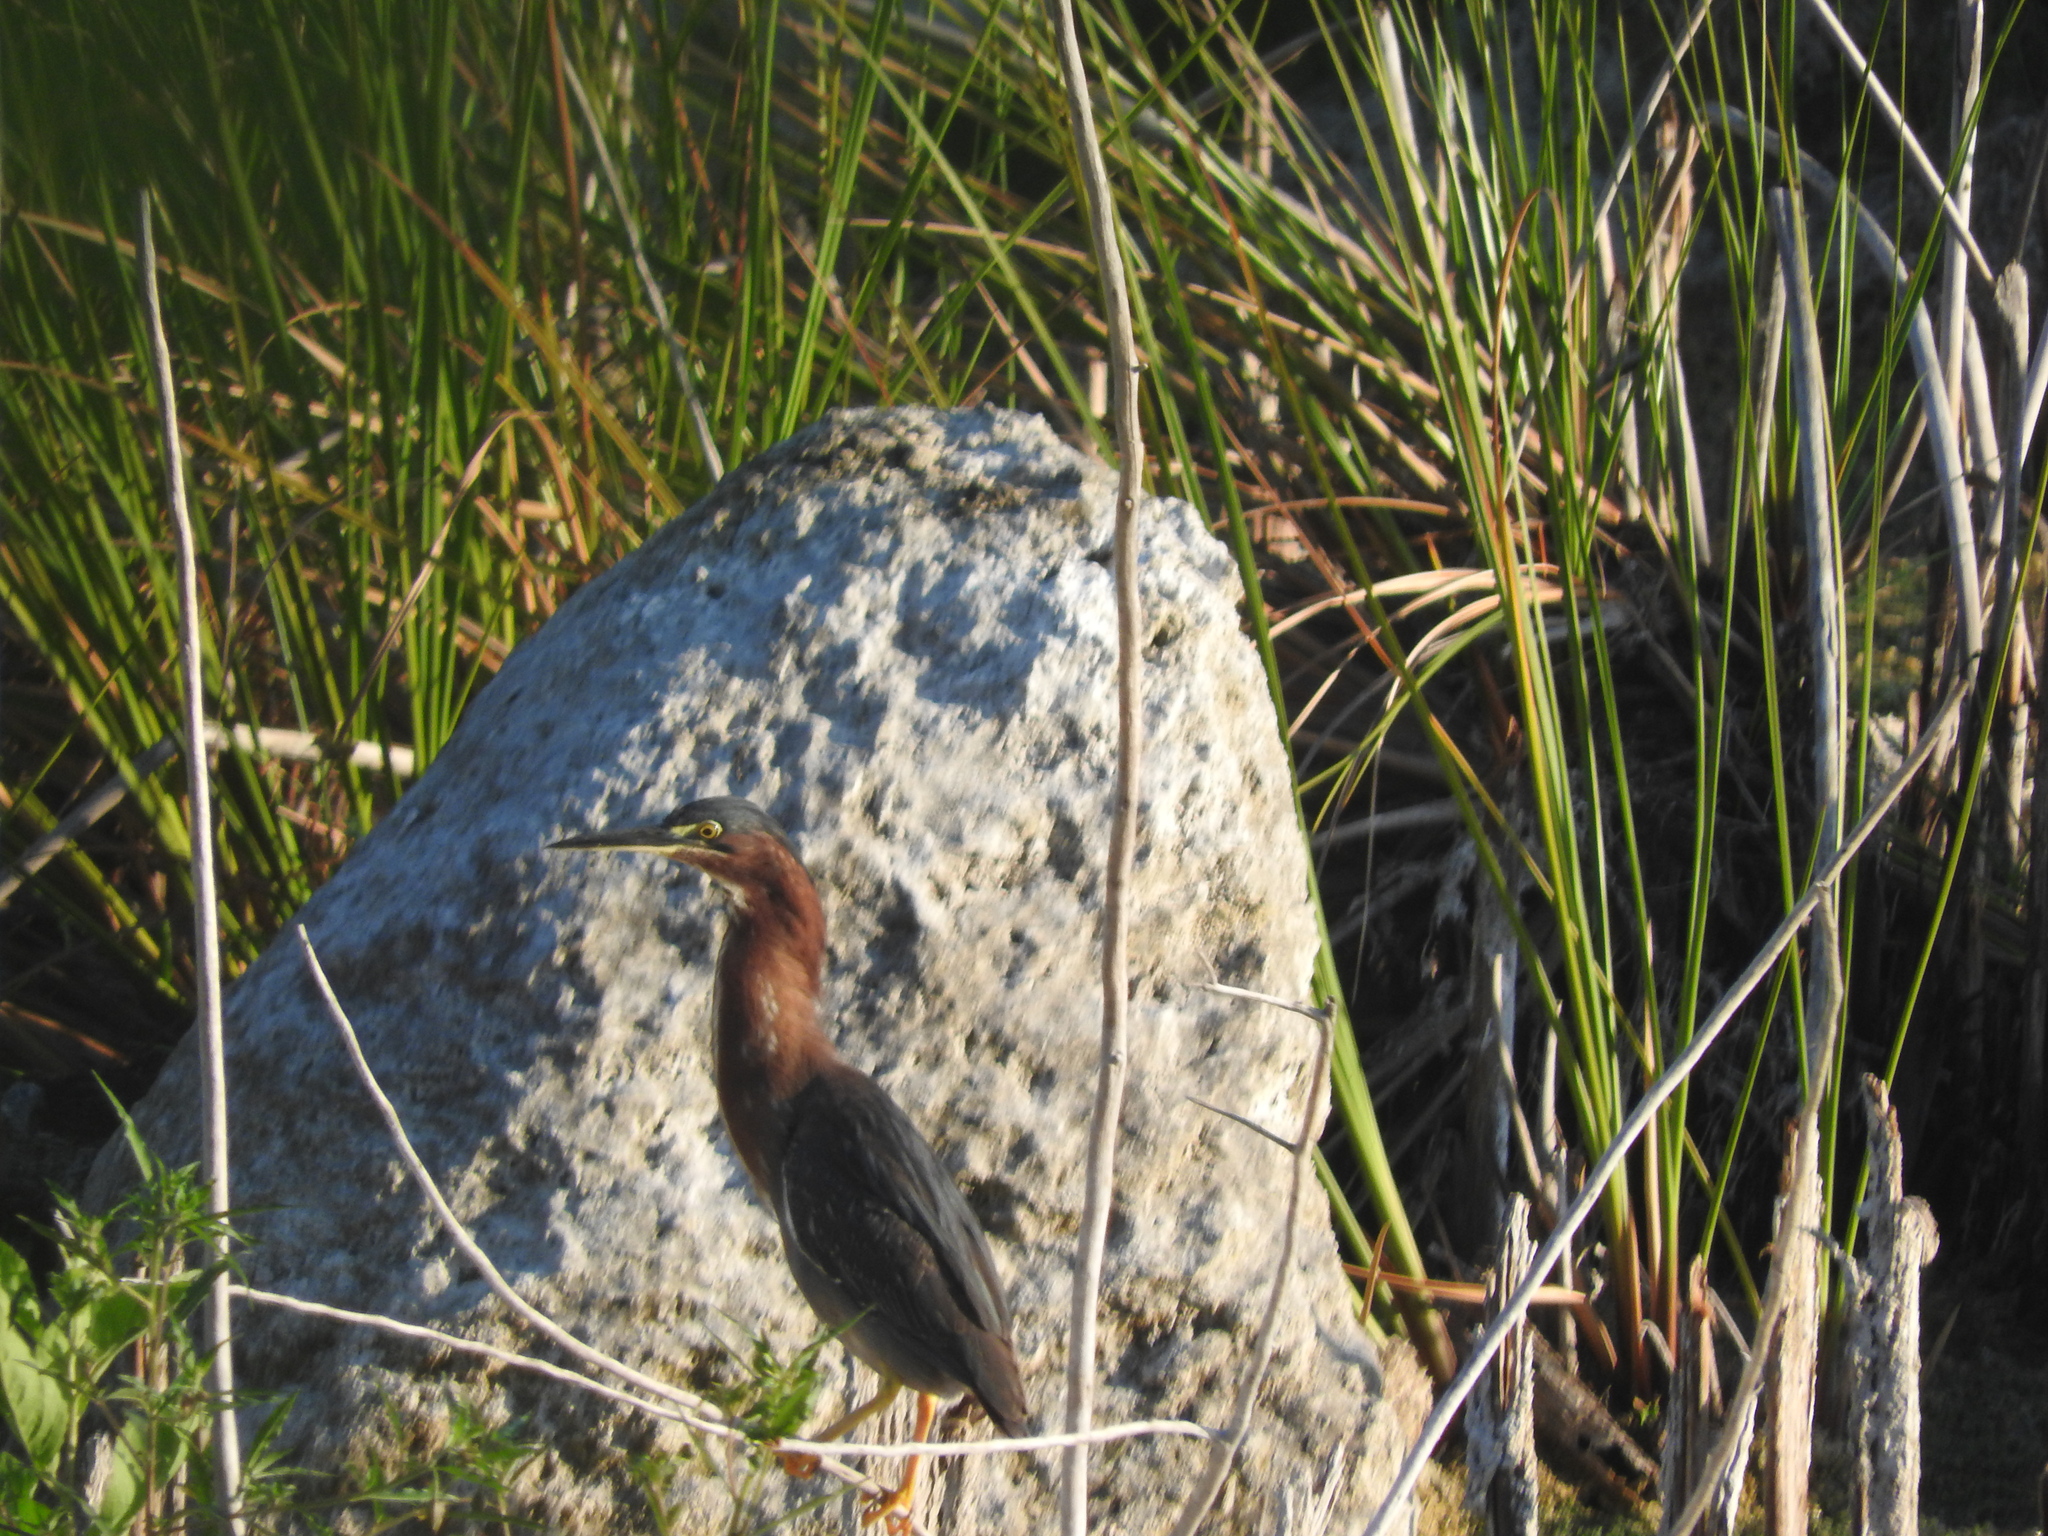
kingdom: Animalia
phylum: Chordata
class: Aves
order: Pelecaniformes
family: Ardeidae
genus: Butorides
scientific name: Butorides virescens
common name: Green heron
